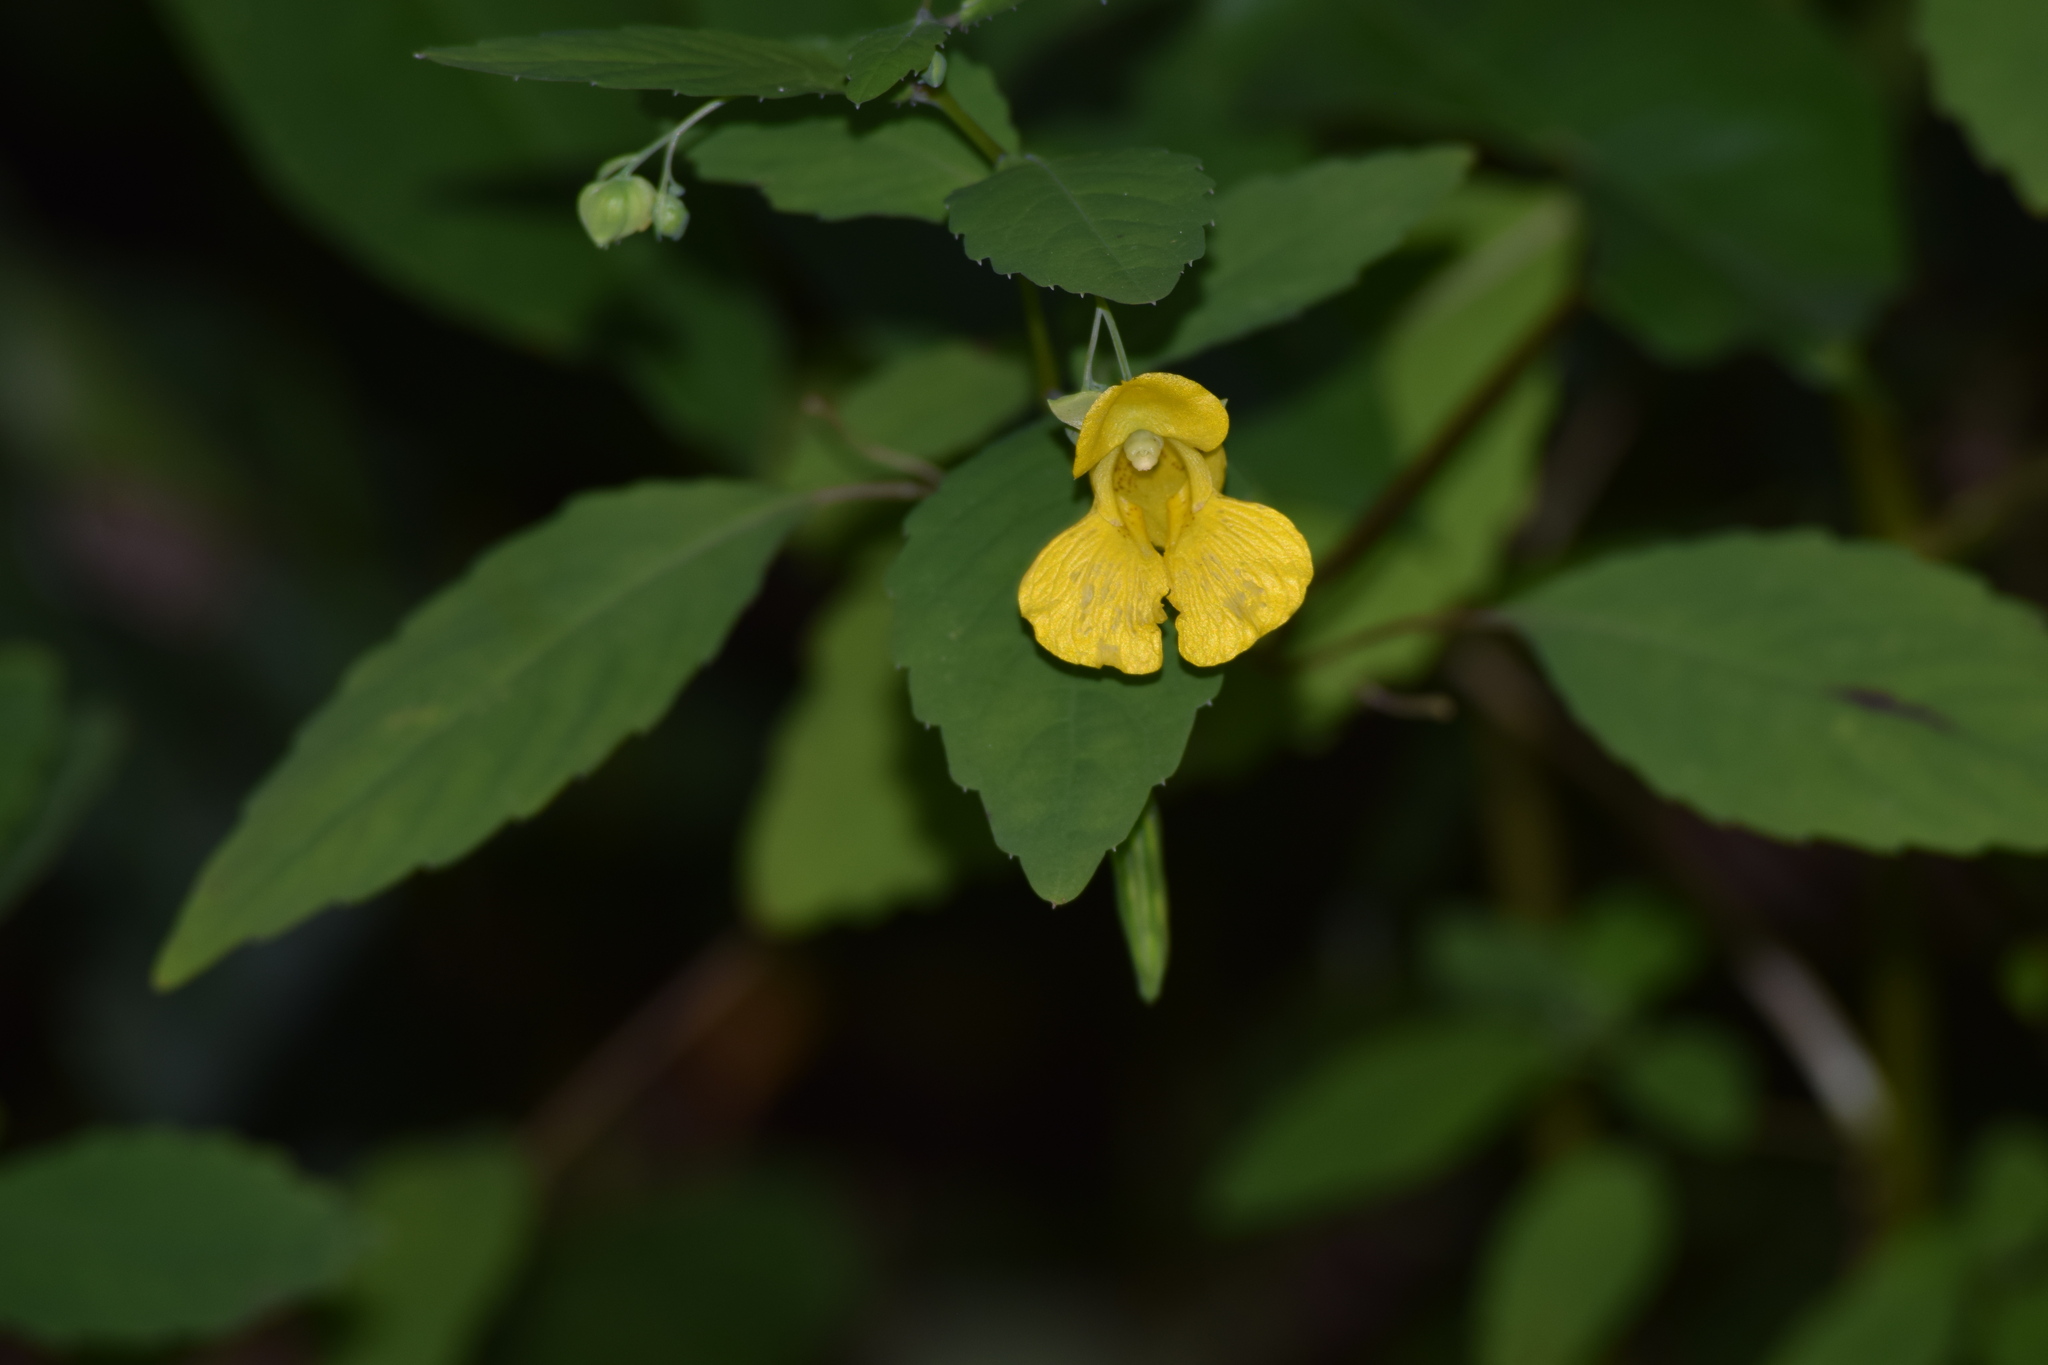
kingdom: Plantae
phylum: Tracheophyta
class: Magnoliopsida
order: Ericales
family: Balsaminaceae
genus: Impatiens
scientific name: Impatiens pallida
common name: Pale snapweed
